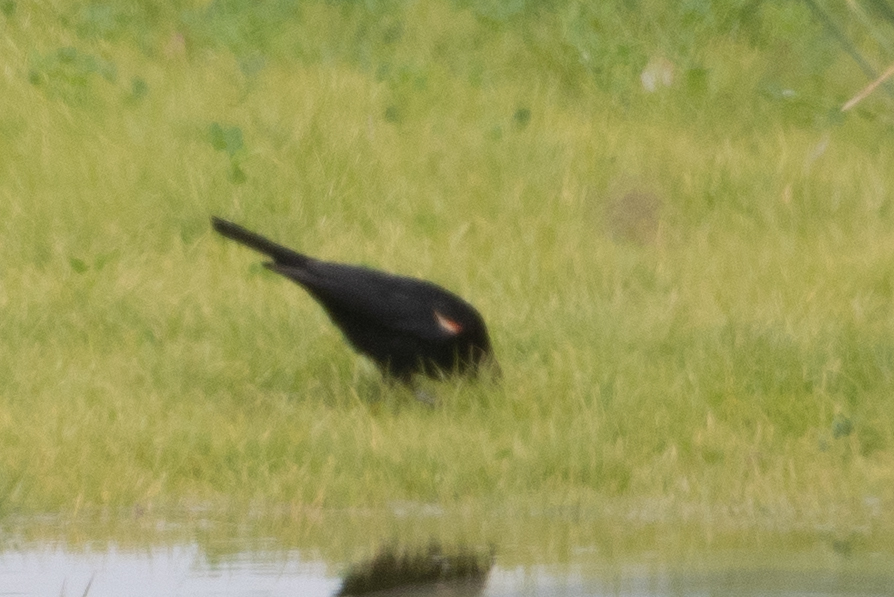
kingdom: Animalia
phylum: Chordata
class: Aves
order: Passeriformes
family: Icteridae
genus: Agelaius
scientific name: Agelaius tricolor
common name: Tricolored blackbird
